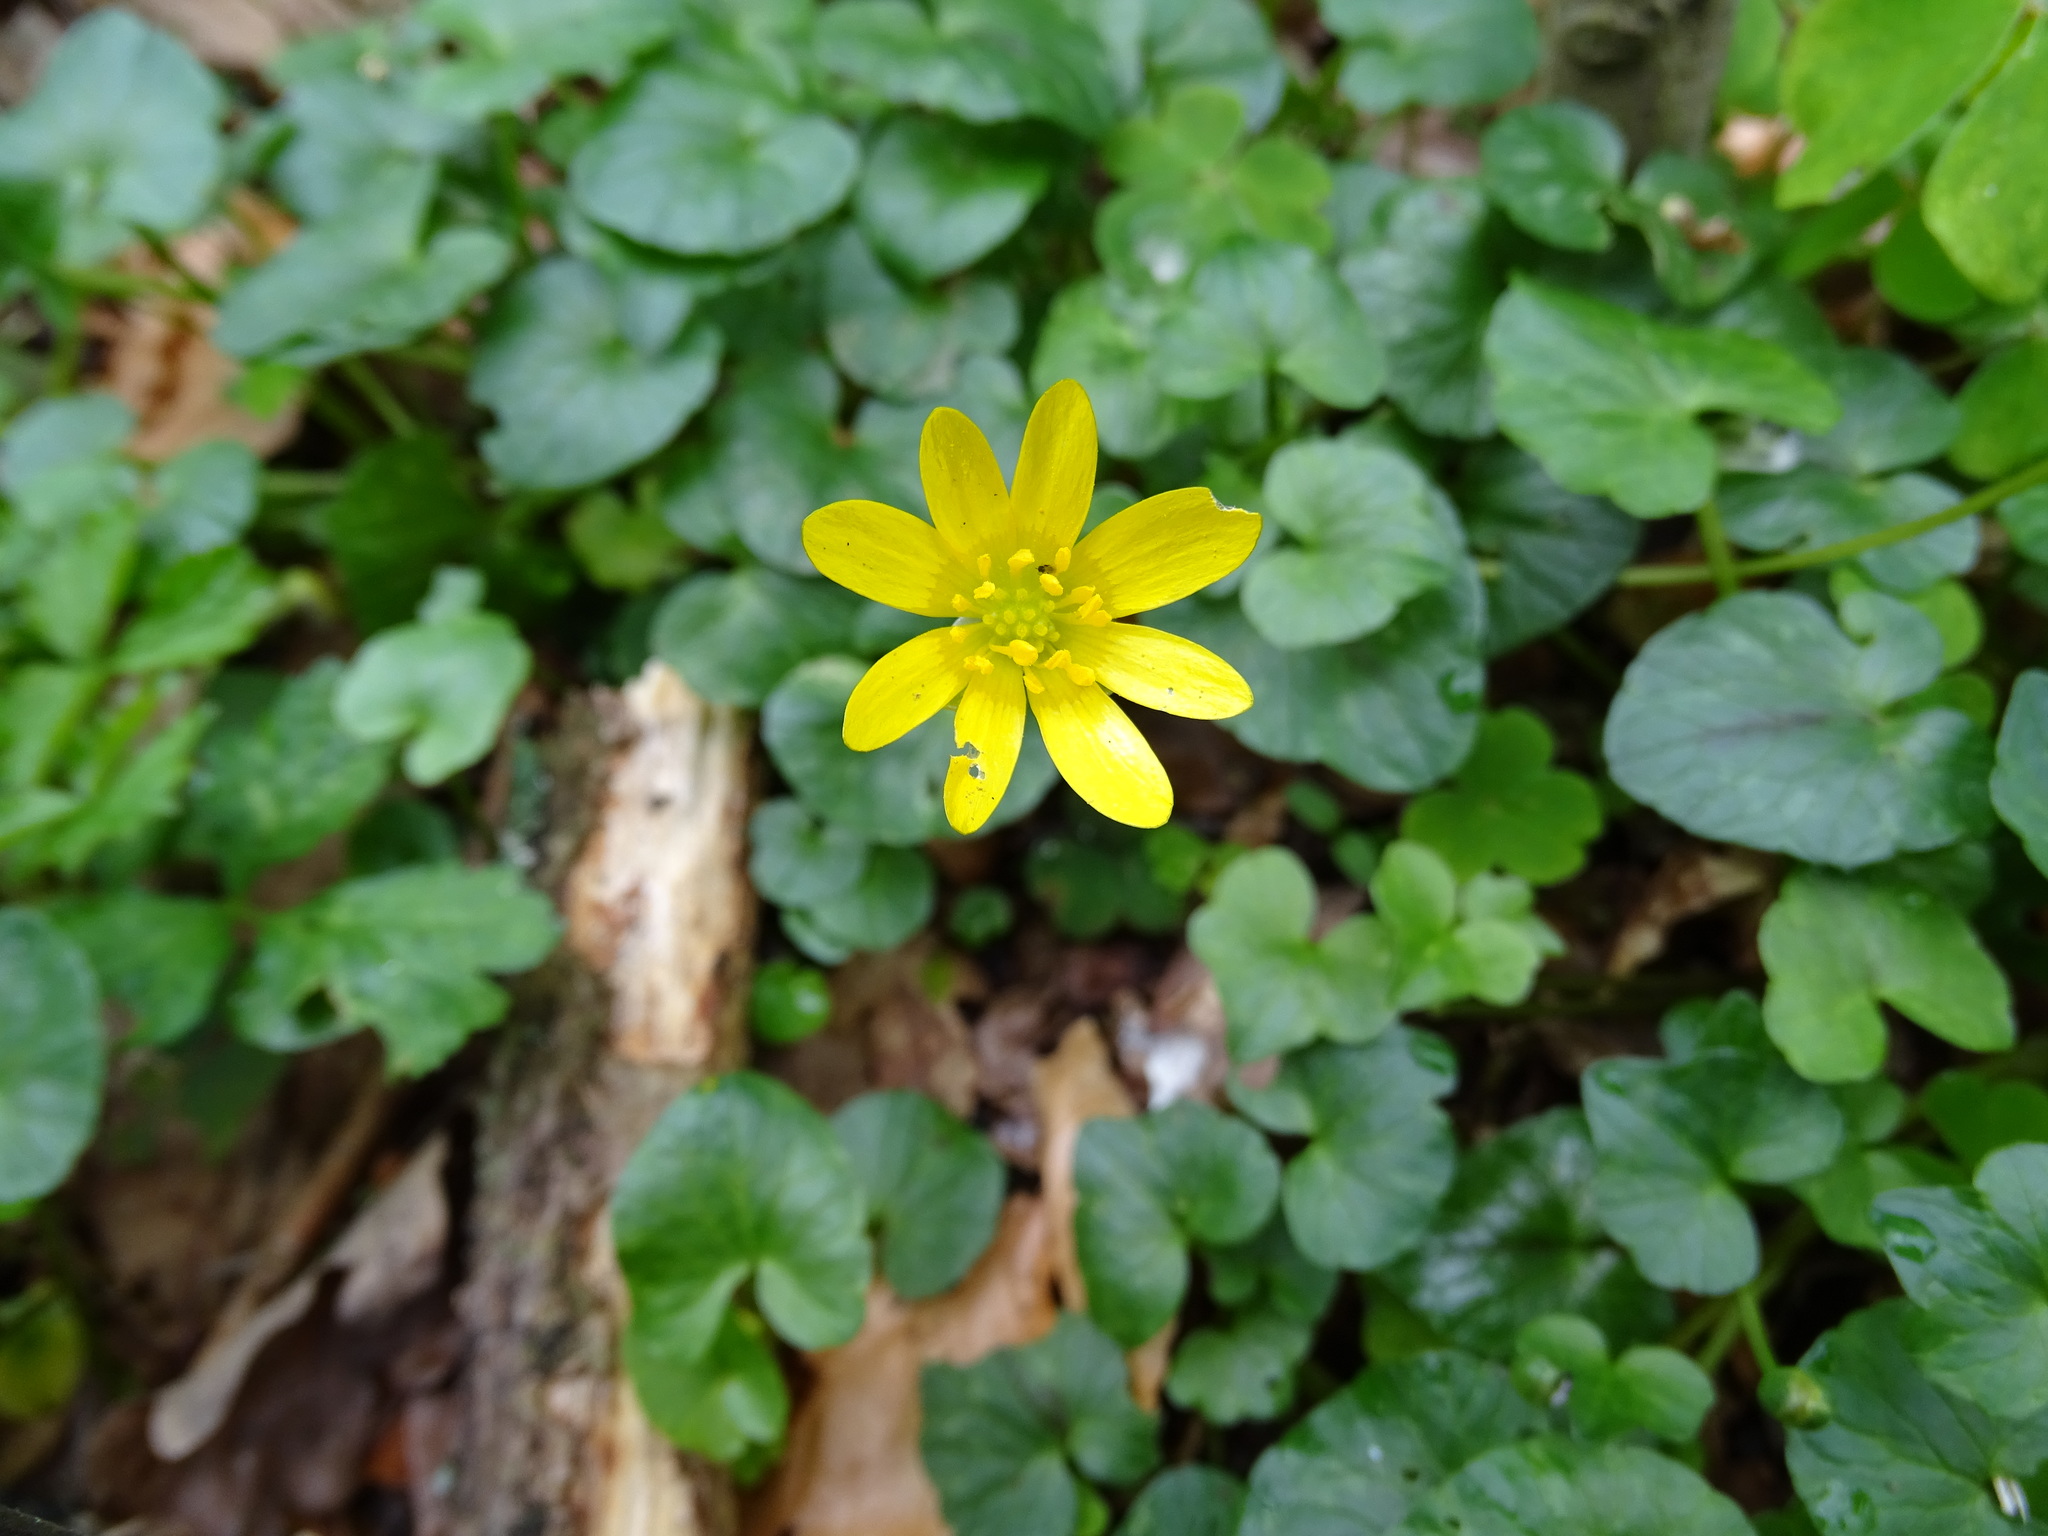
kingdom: Plantae
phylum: Tracheophyta
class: Magnoliopsida
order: Ranunculales
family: Ranunculaceae
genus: Ficaria
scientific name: Ficaria verna
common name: Lesser celandine
